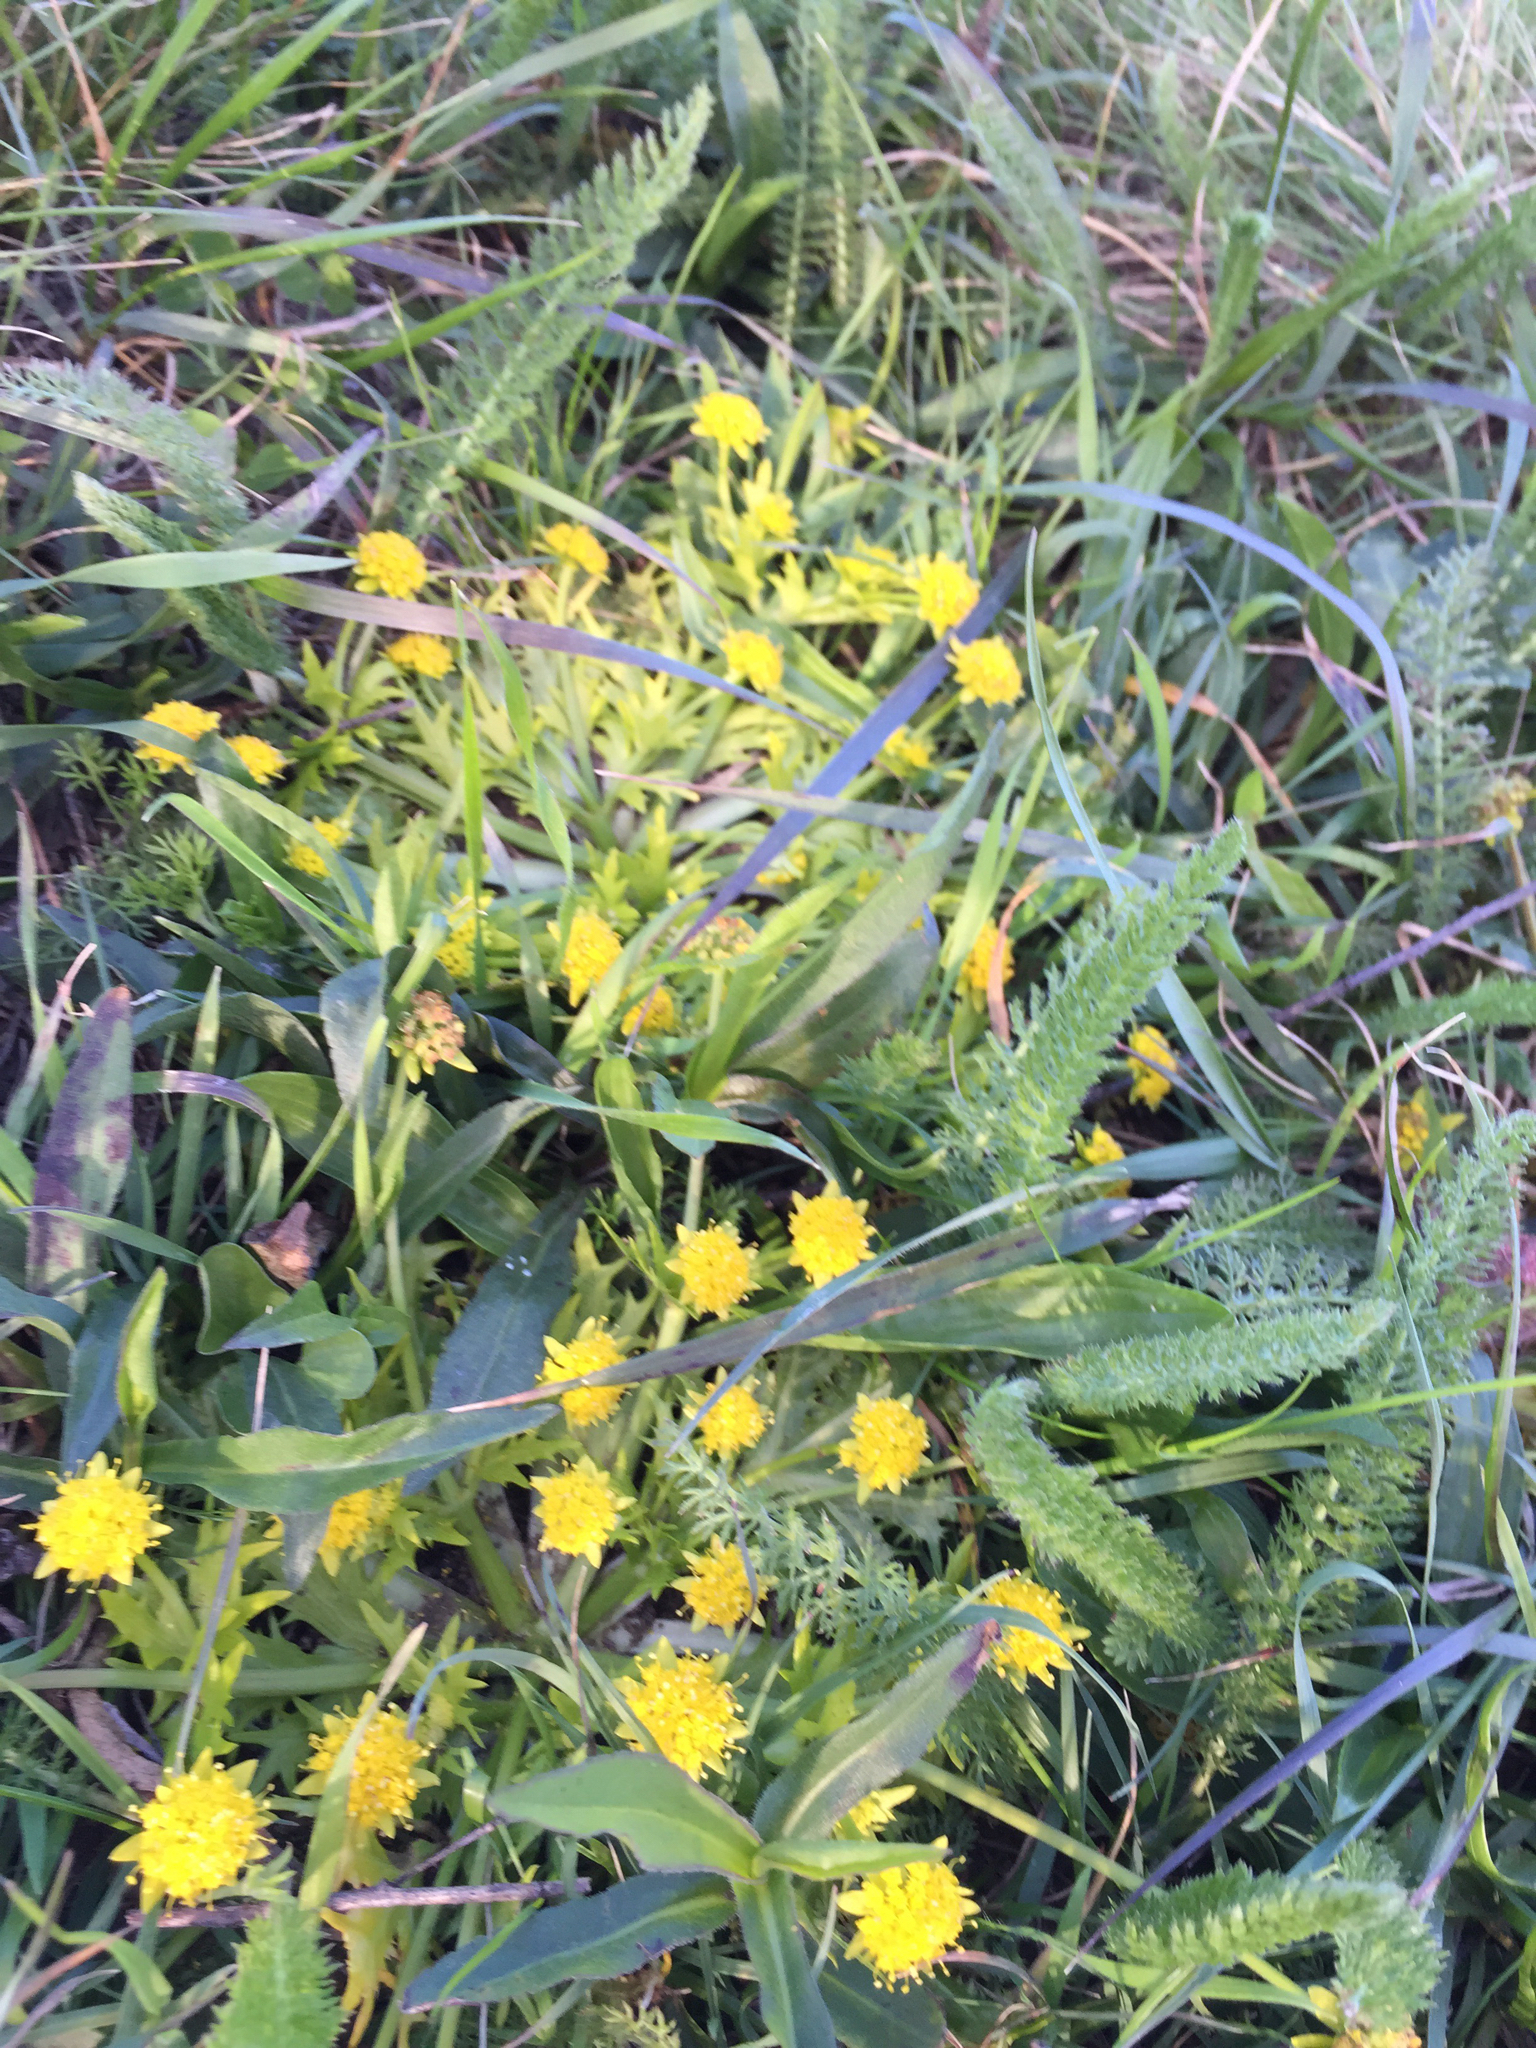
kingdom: Plantae
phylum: Tracheophyta
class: Magnoliopsida
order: Apiales
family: Apiaceae
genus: Sanicula
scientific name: Sanicula arctopoides
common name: Footsteps-of-spring
